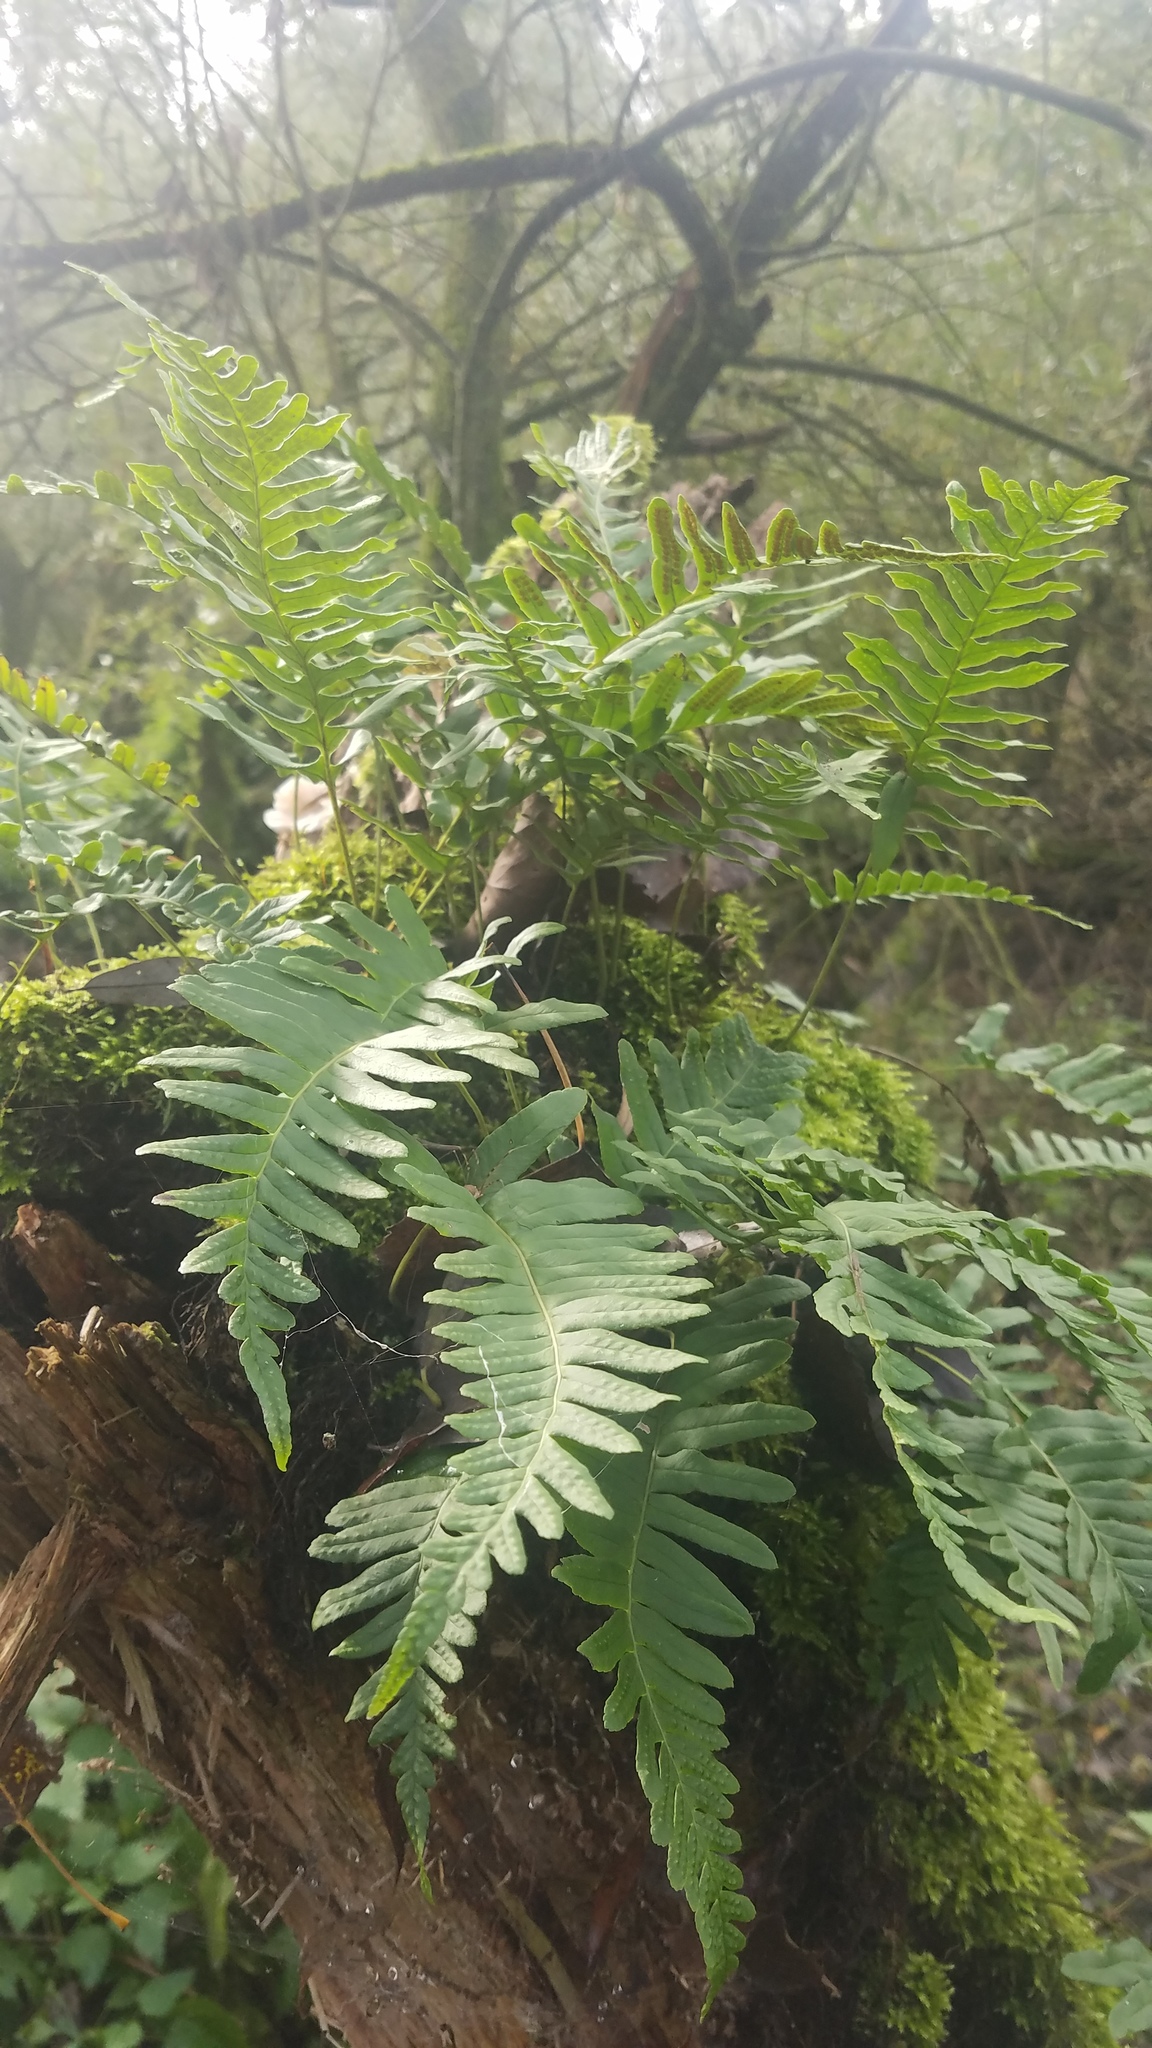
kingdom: Plantae
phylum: Tracheophyta
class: Polypodiopsida
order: Polypodiales
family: Polypodiaceae
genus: Polypodium
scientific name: Polypodium vulgare
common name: Common polypody
